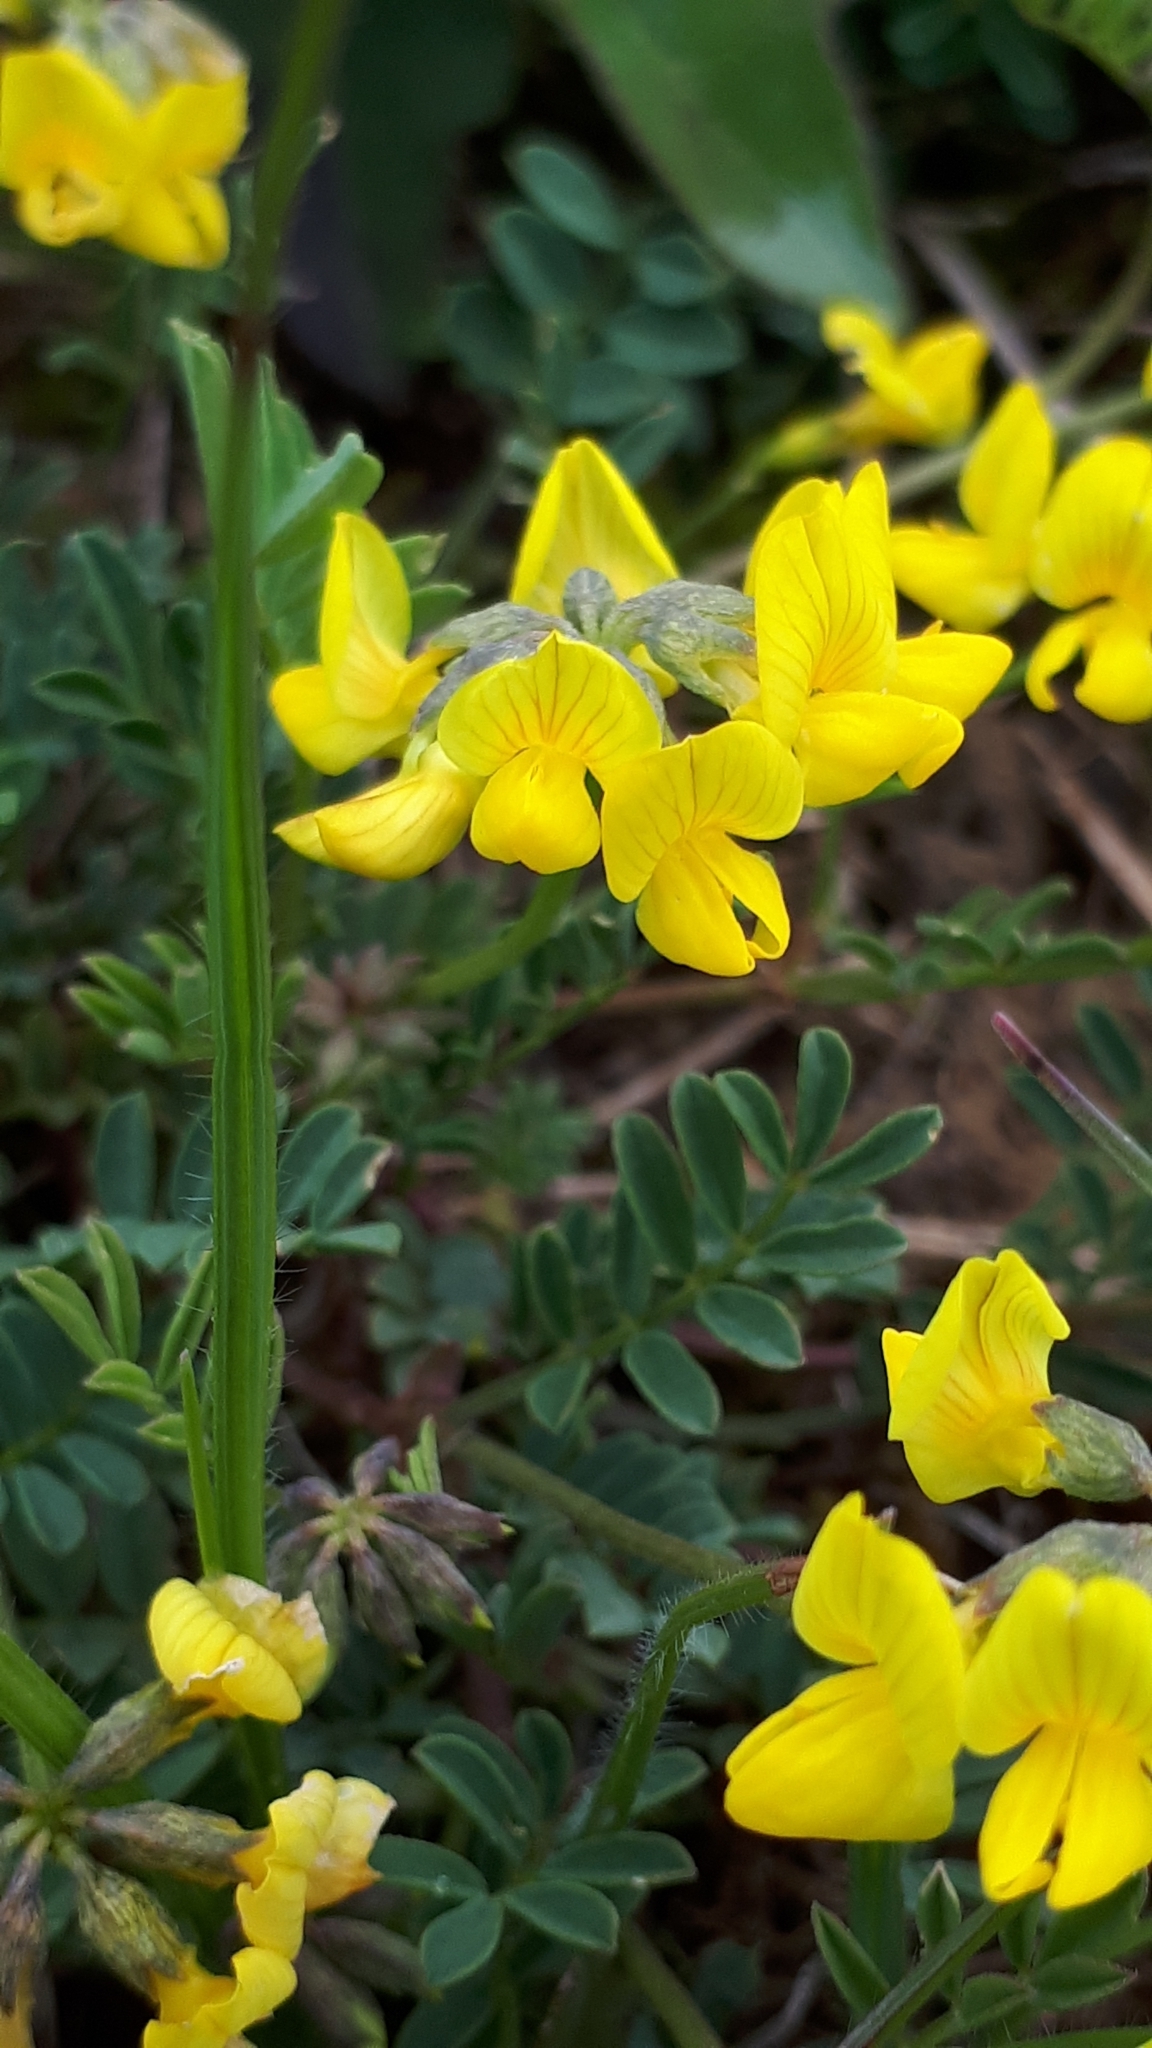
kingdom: Plantae
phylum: Tracheophyta
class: Magnoliopsida
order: Fabales
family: Fabaceae
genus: Hippocrepis
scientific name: Hippocrepis comosa
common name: Horseshoe vetch
